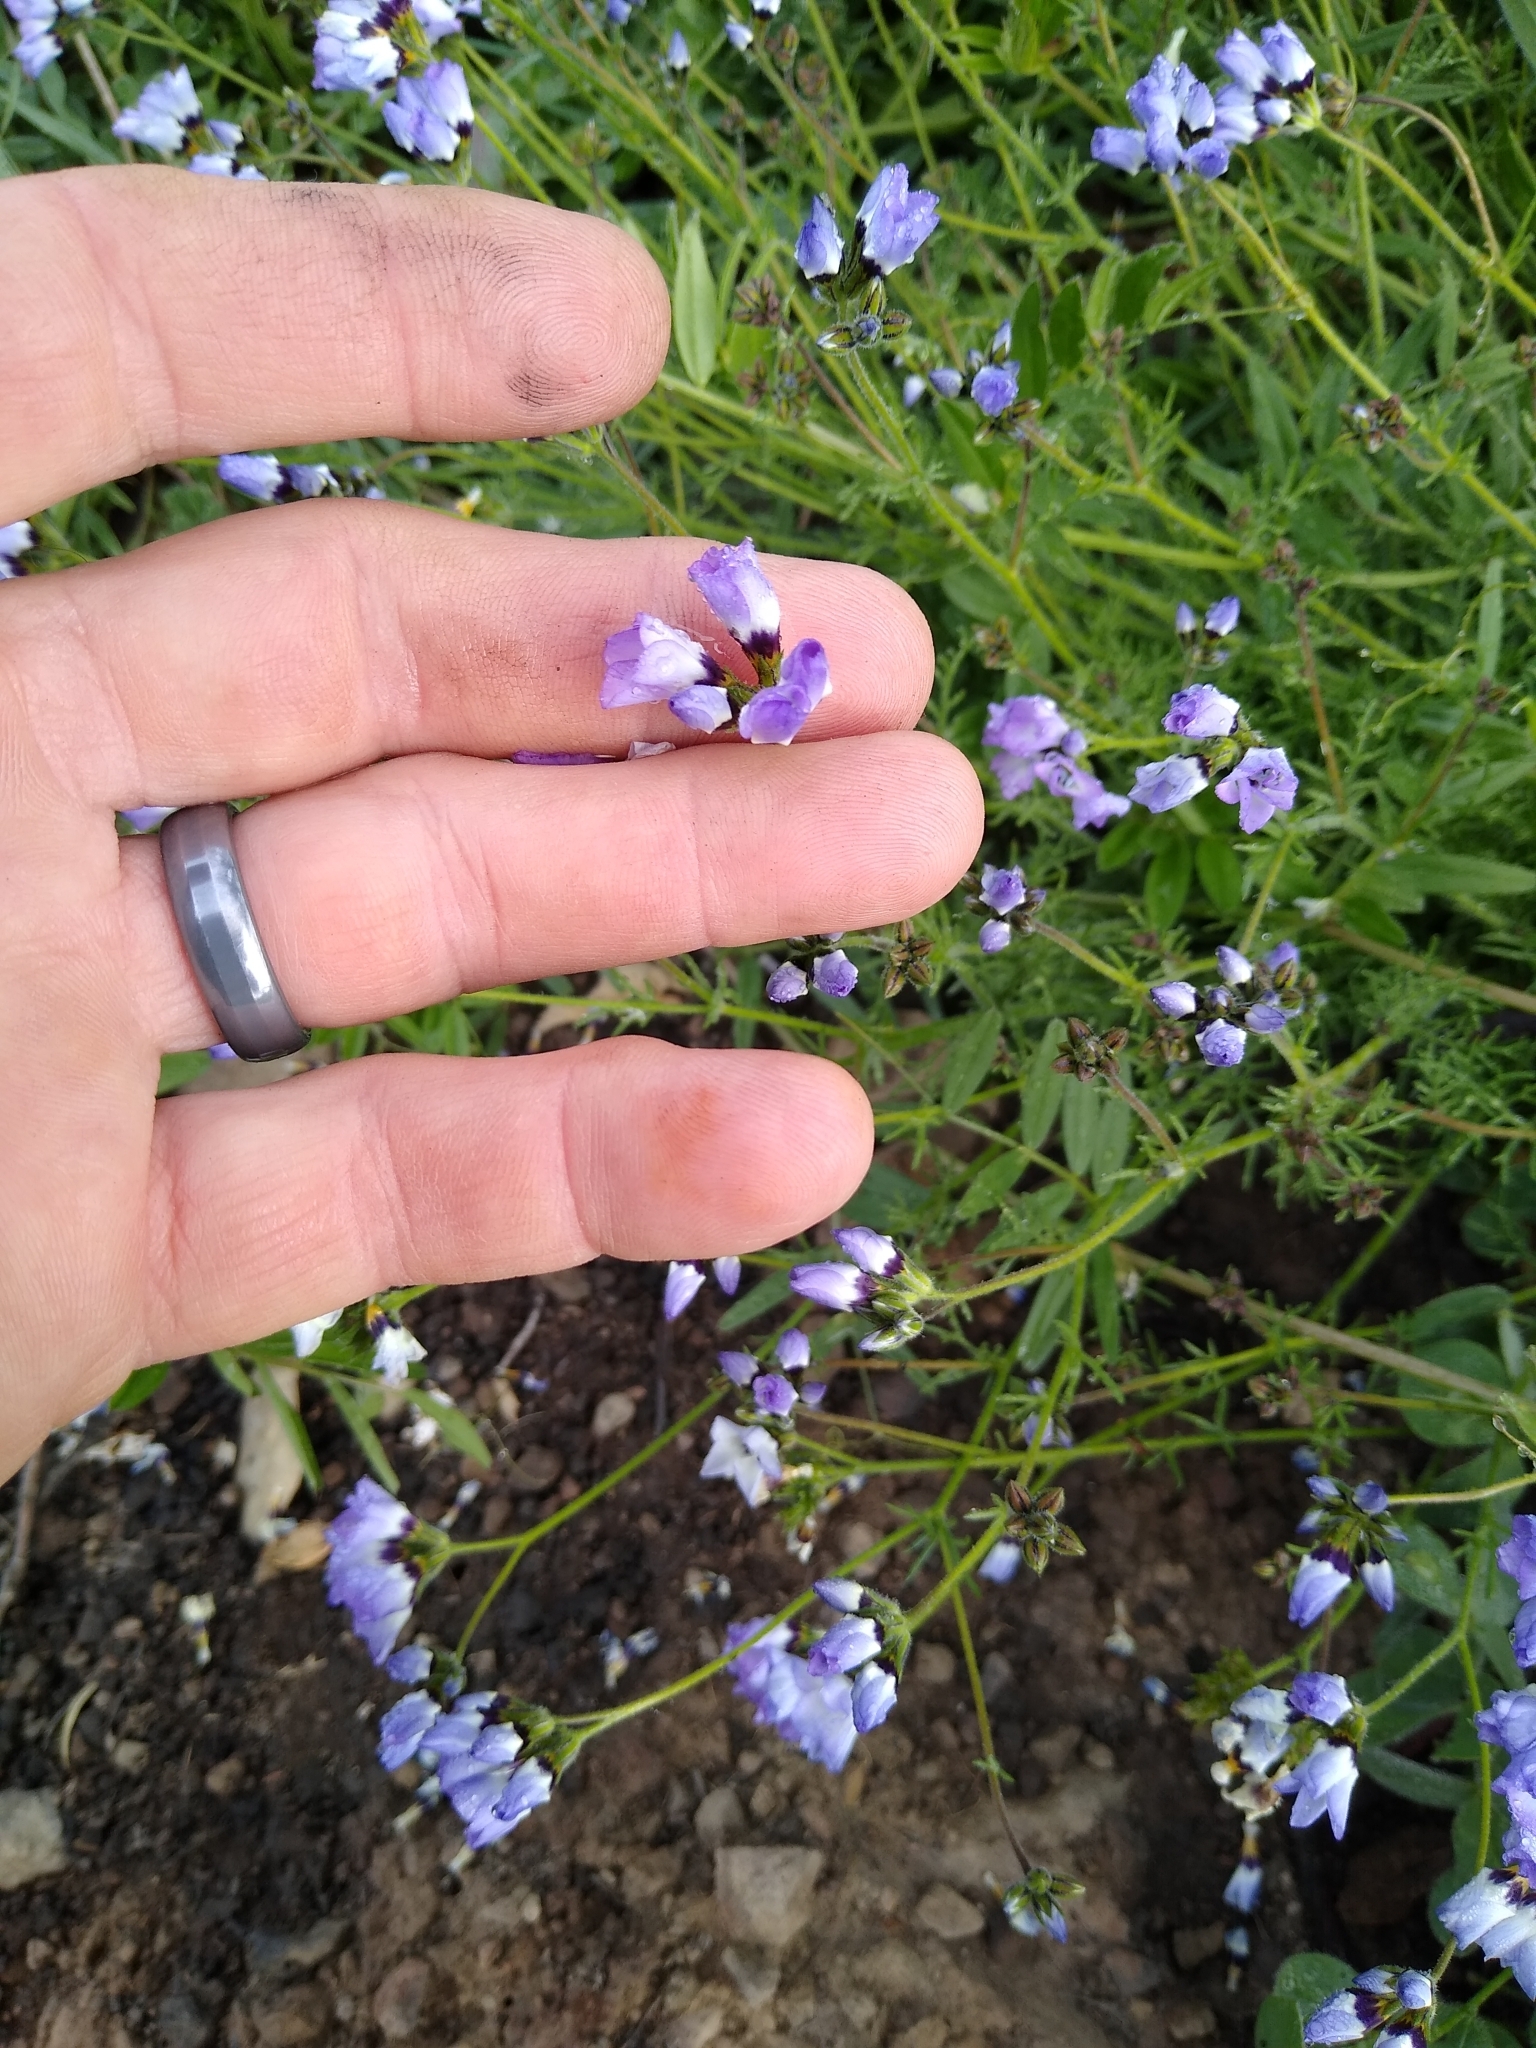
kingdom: Plantae
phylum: Tracheophyta
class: Magnoliopsida
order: Ericales
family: Polemoniaceae
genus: Gilia
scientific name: Gilia tricolor
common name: Bird's-eyes
